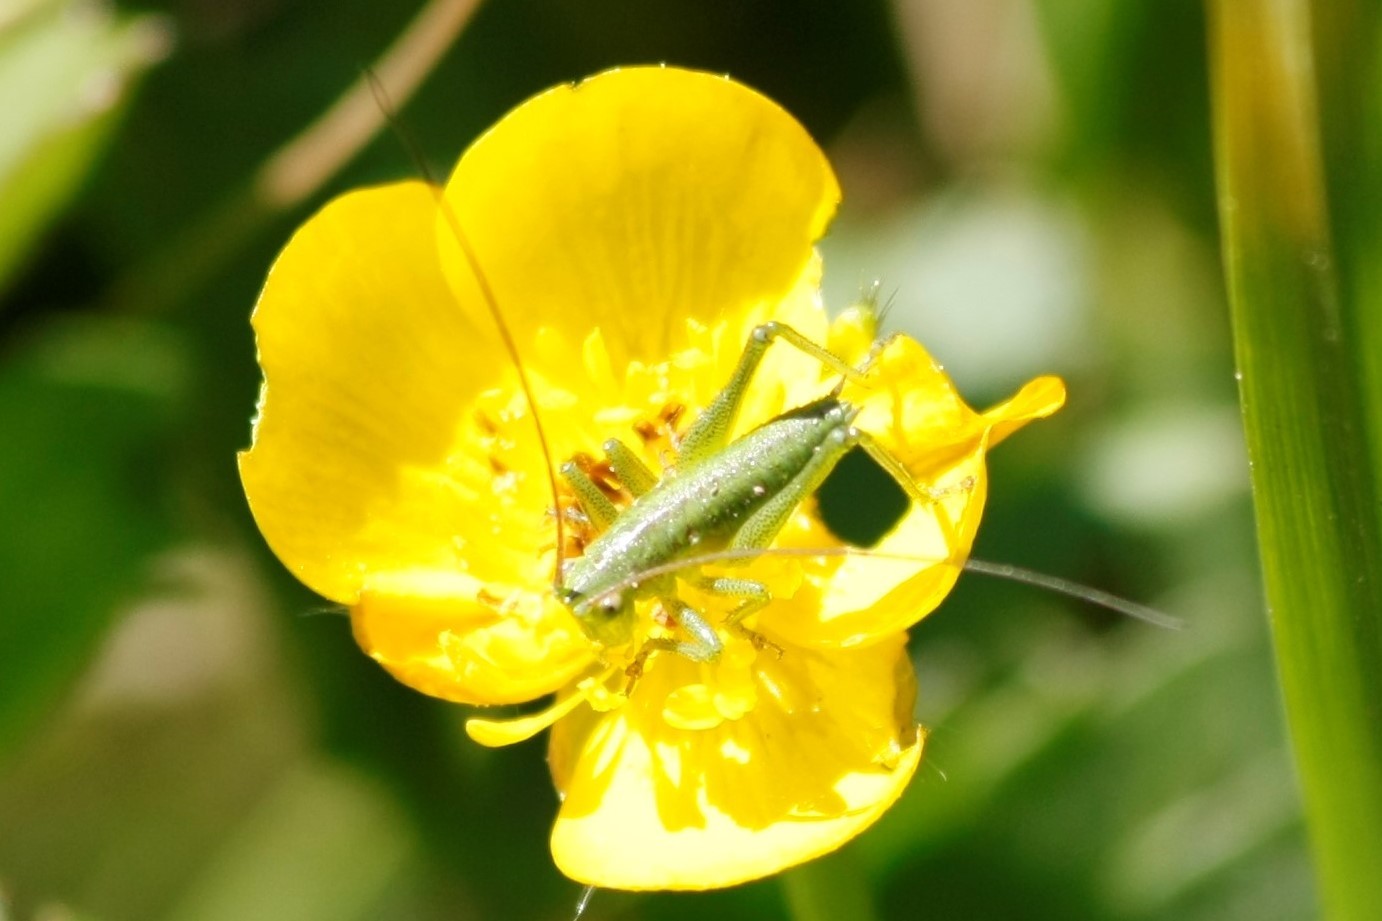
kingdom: Animalia
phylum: Arthropoda
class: Insecta
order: Orthoptera
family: Tettigoniidae
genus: Tettigonia
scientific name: Tettigonia viridissima
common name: Great green bush-cricket
